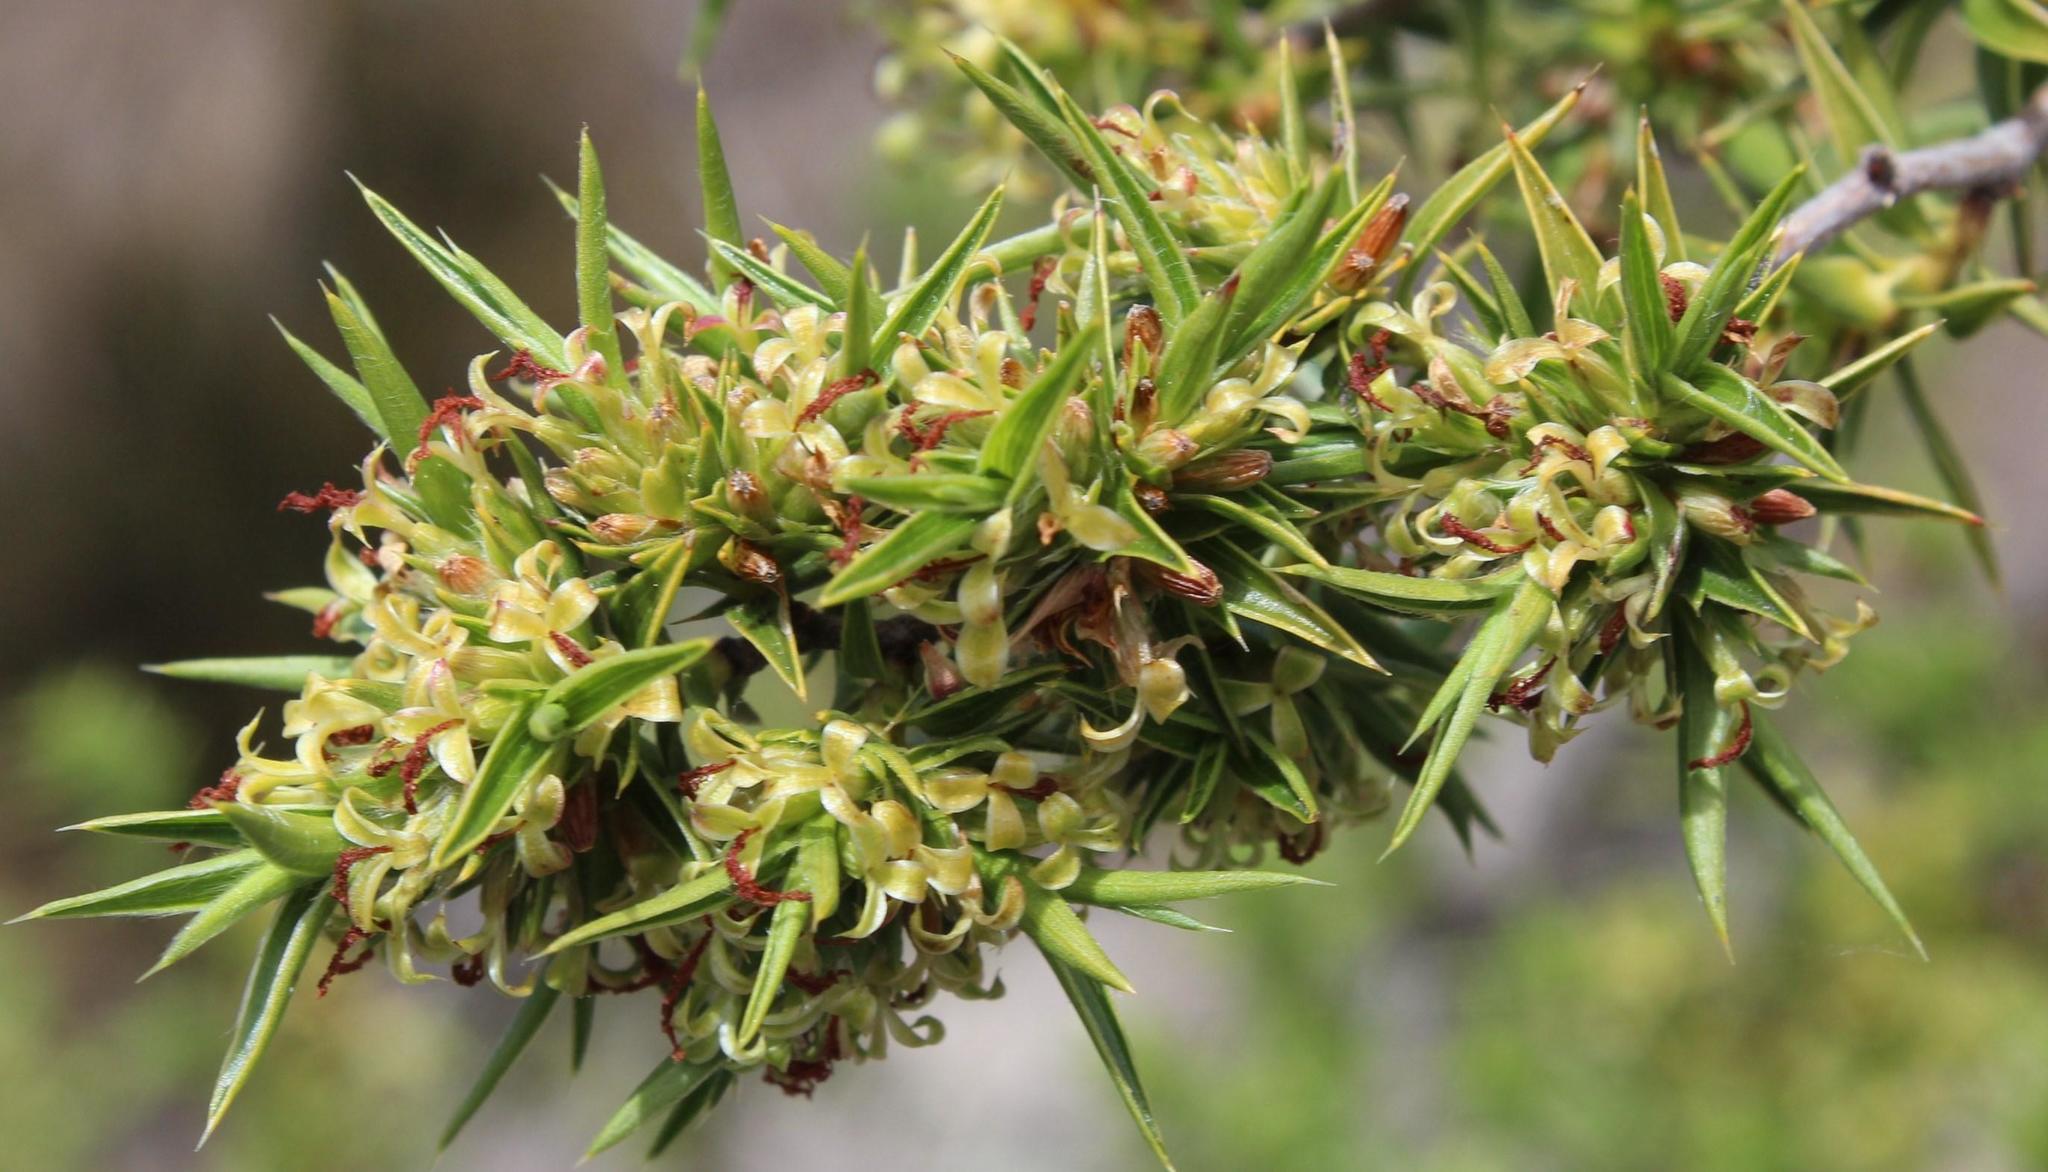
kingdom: Plantae
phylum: Tracheophyta
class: Magnoliopsida
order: Rosales
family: Rosaceae
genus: Cliffortia
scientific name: Cliffortia ruscifolia
